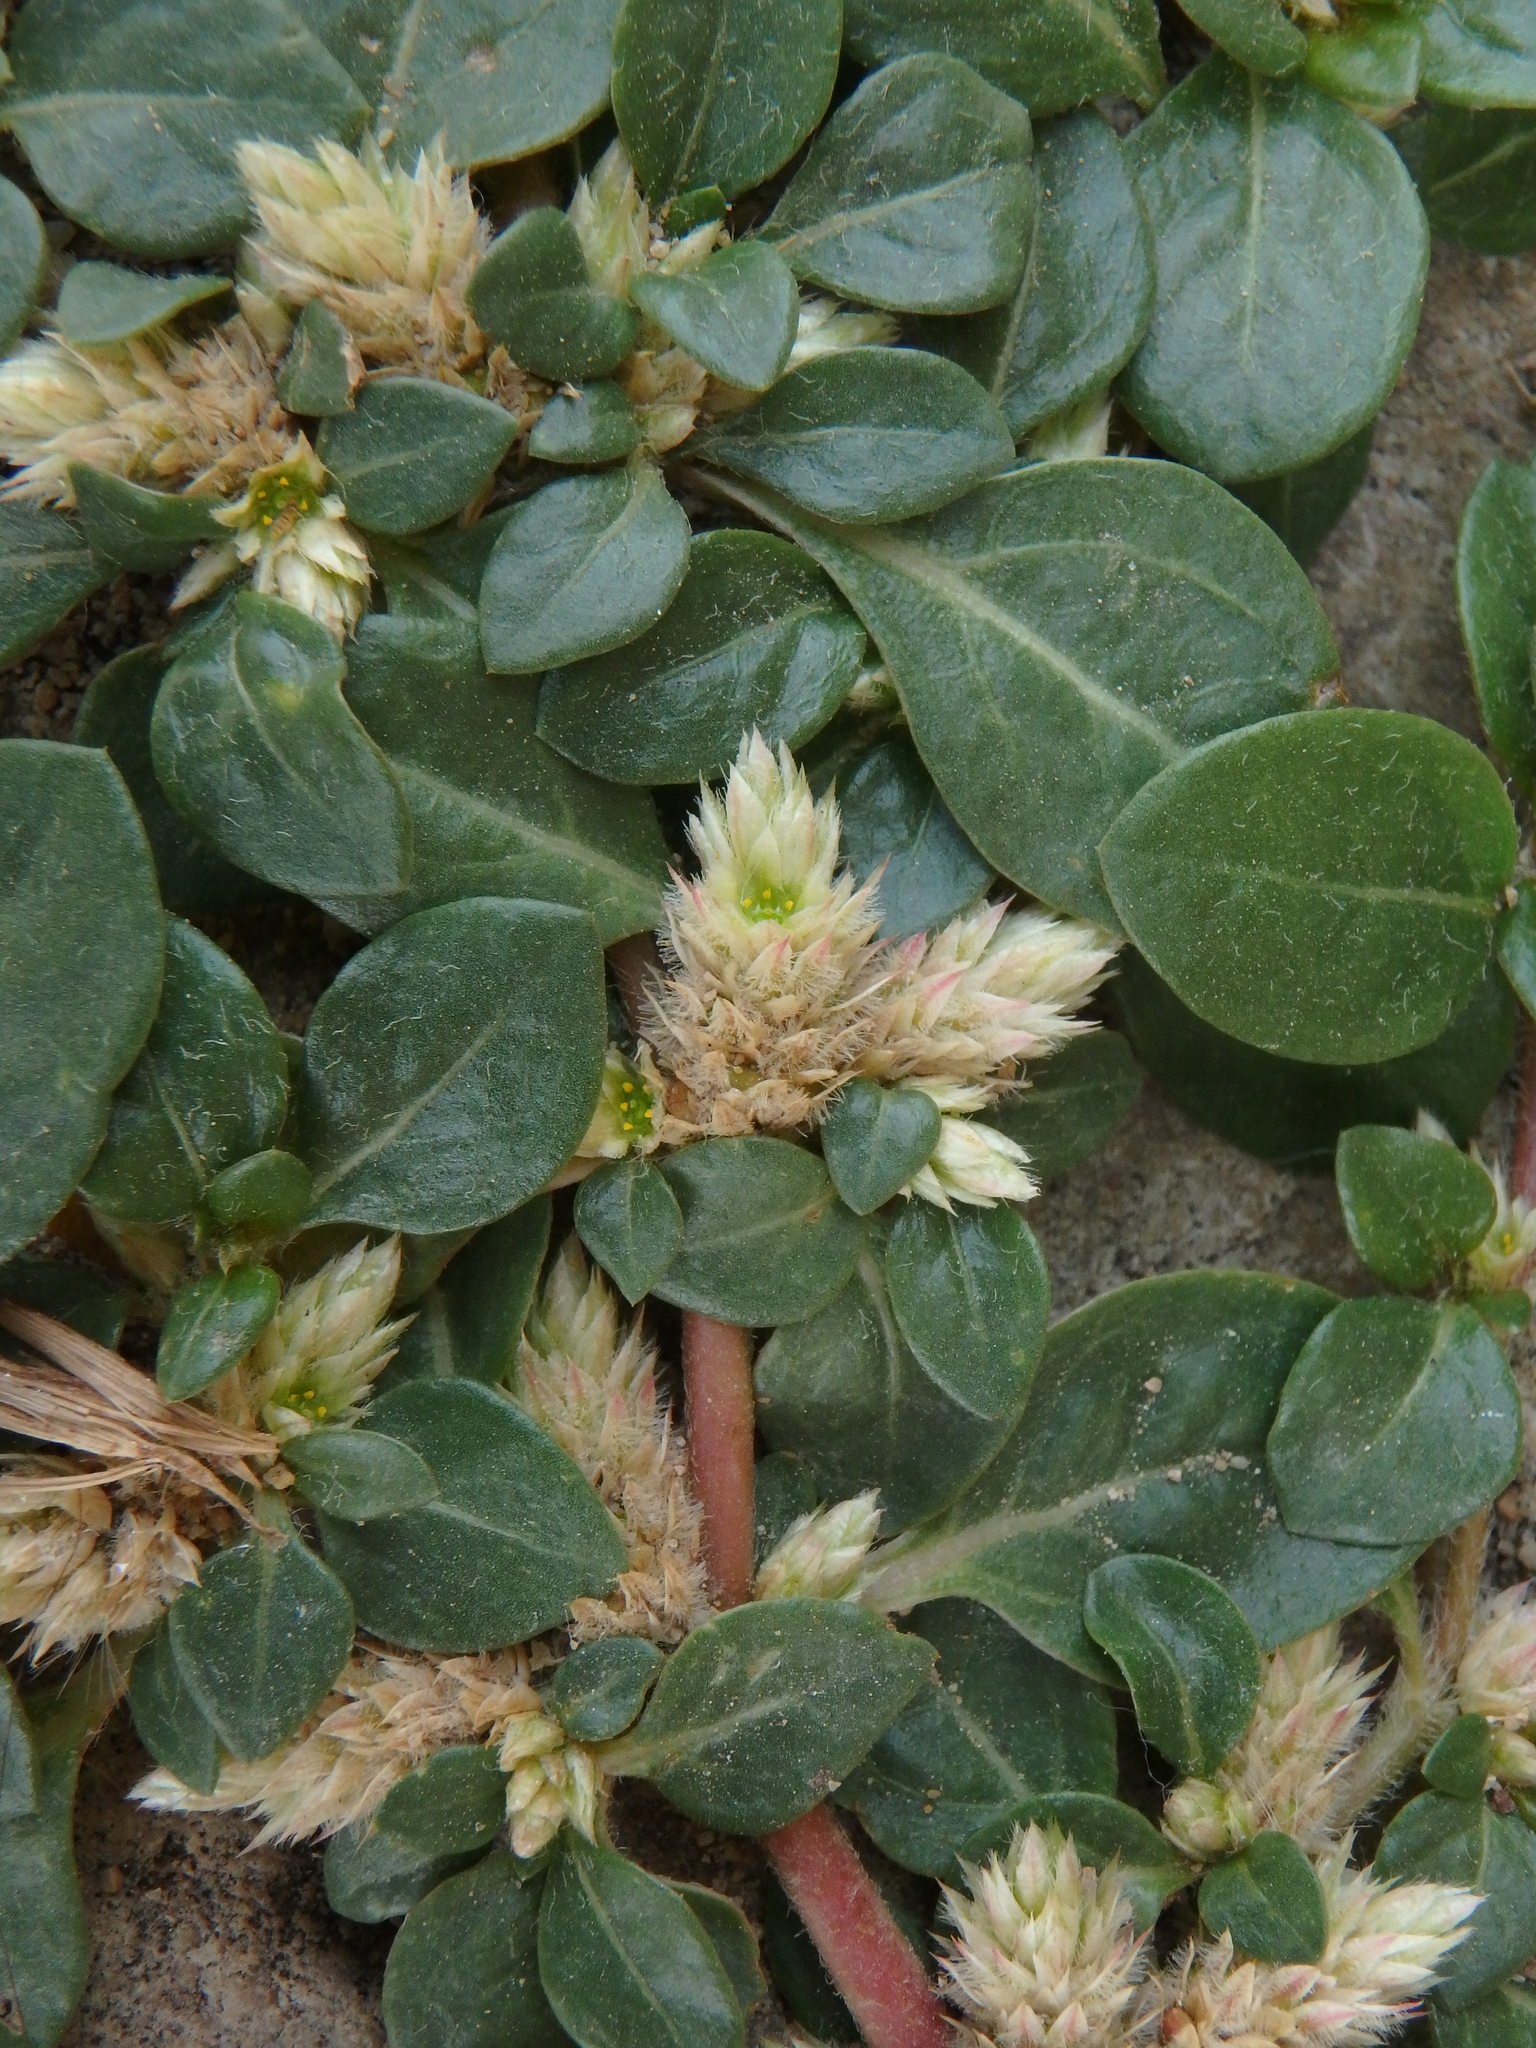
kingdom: Plantae
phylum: Tracheophyta
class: Magnoliopsida
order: Caryophyllales
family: Amaranthaceae
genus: Alternanthera
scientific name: Alternanthera caracasana
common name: Washerwoman
